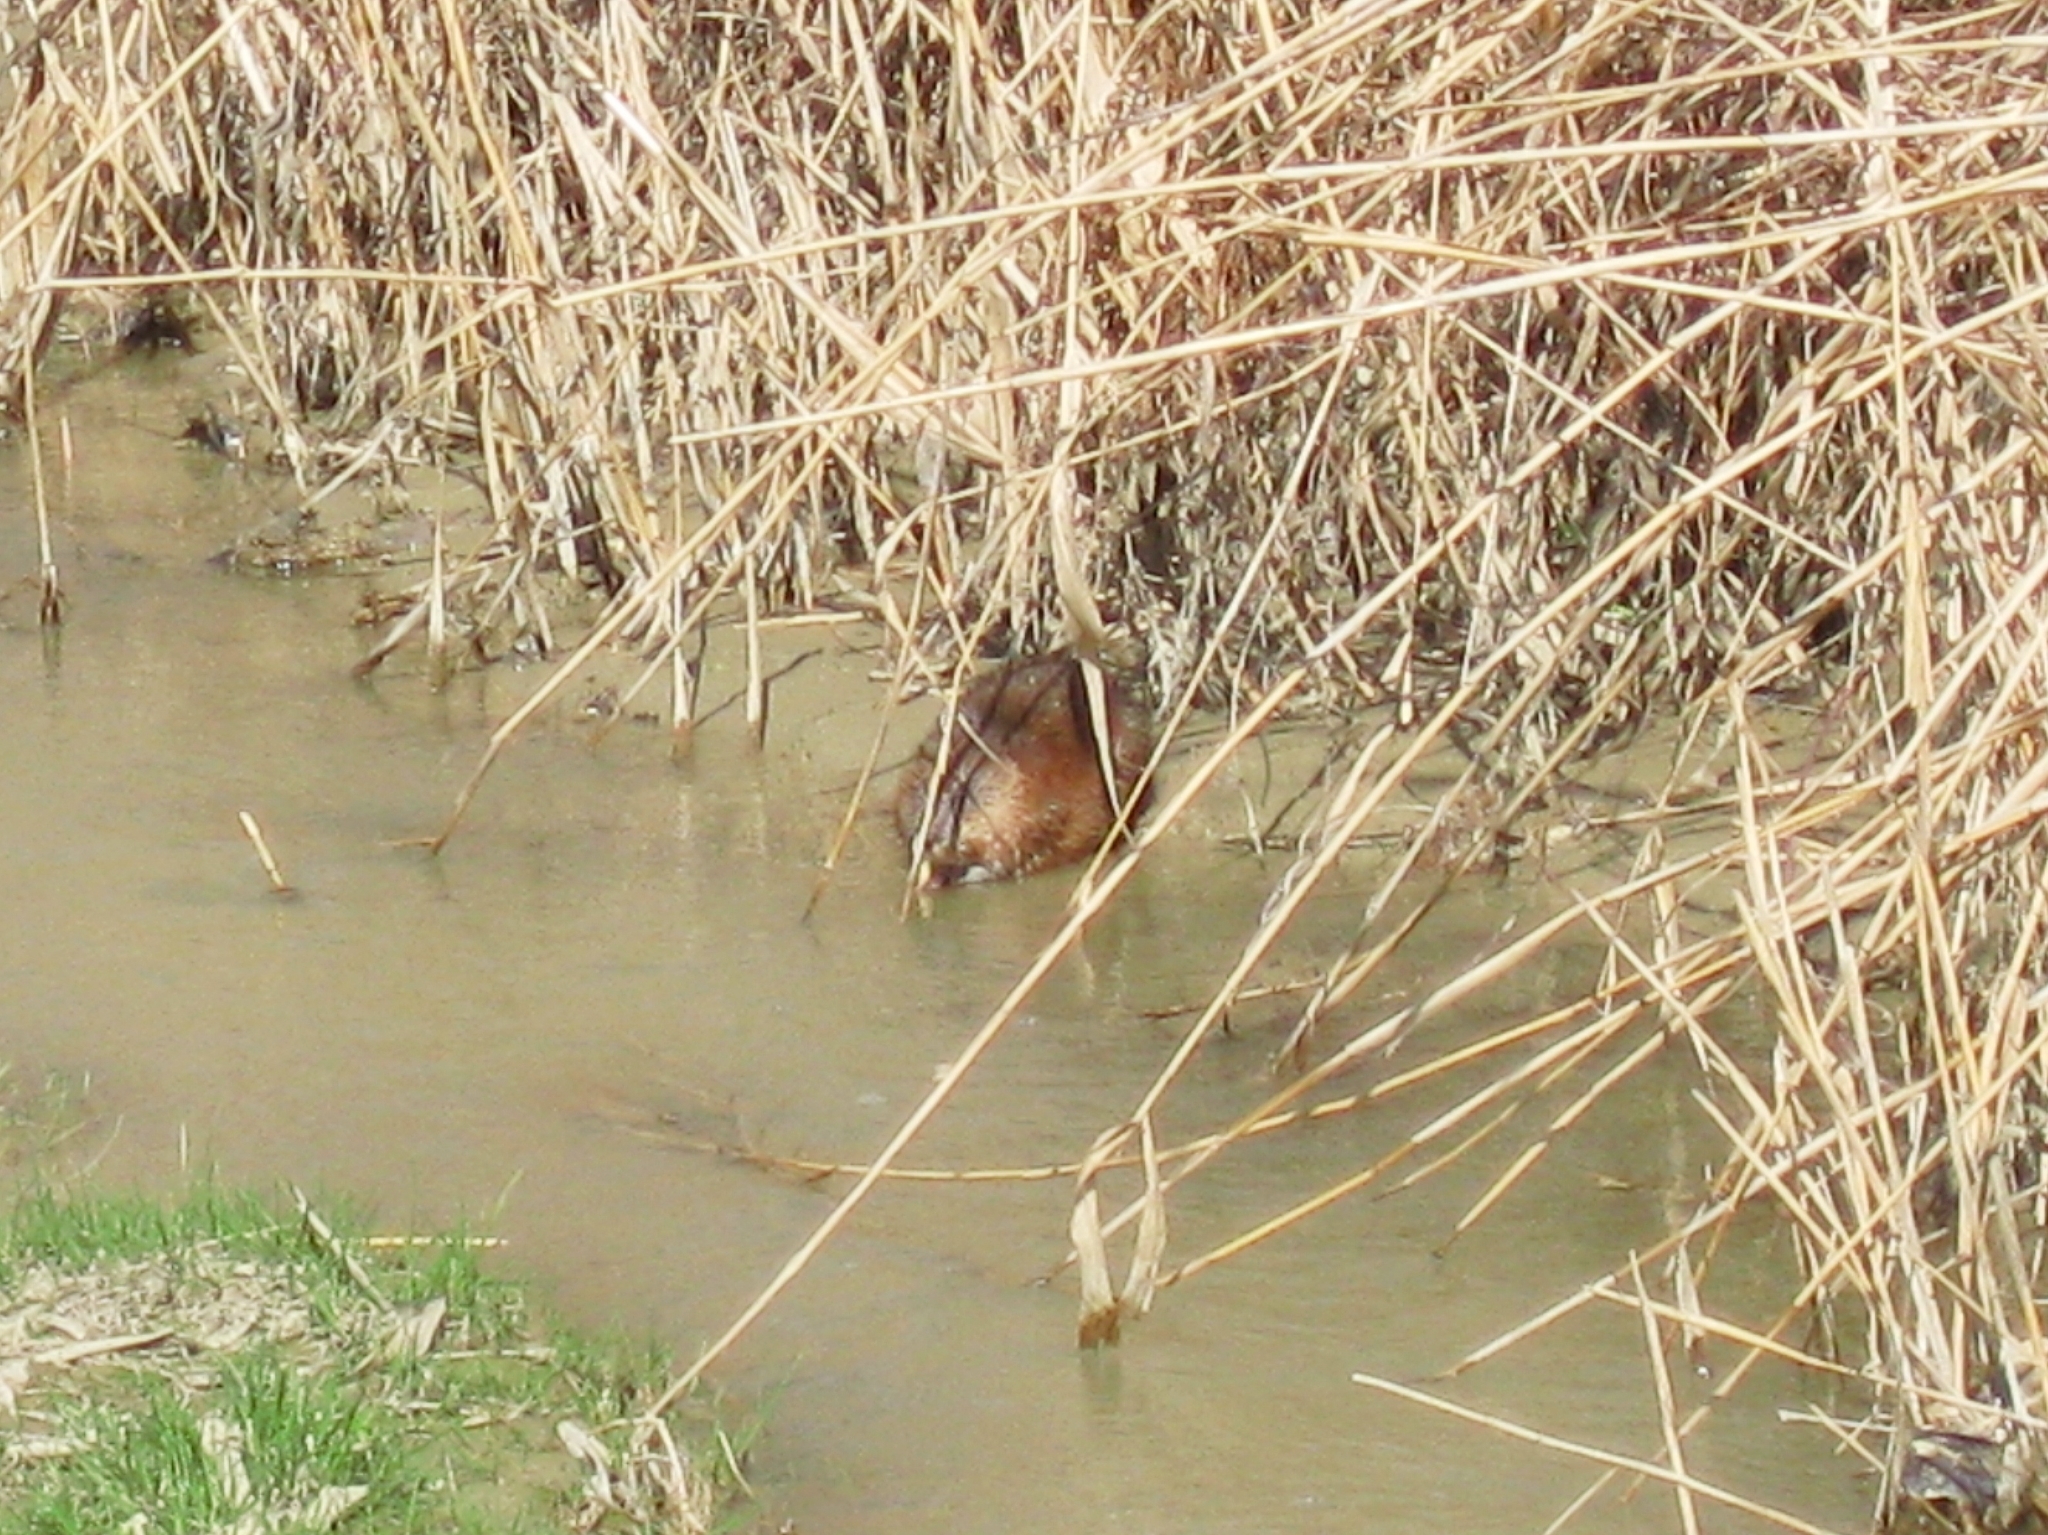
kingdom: Animalia
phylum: Chordata
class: Mammalia
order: Rodentia
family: Cricetidae
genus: Ondatra
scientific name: Ondatra zibethicus
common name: Muskrat
